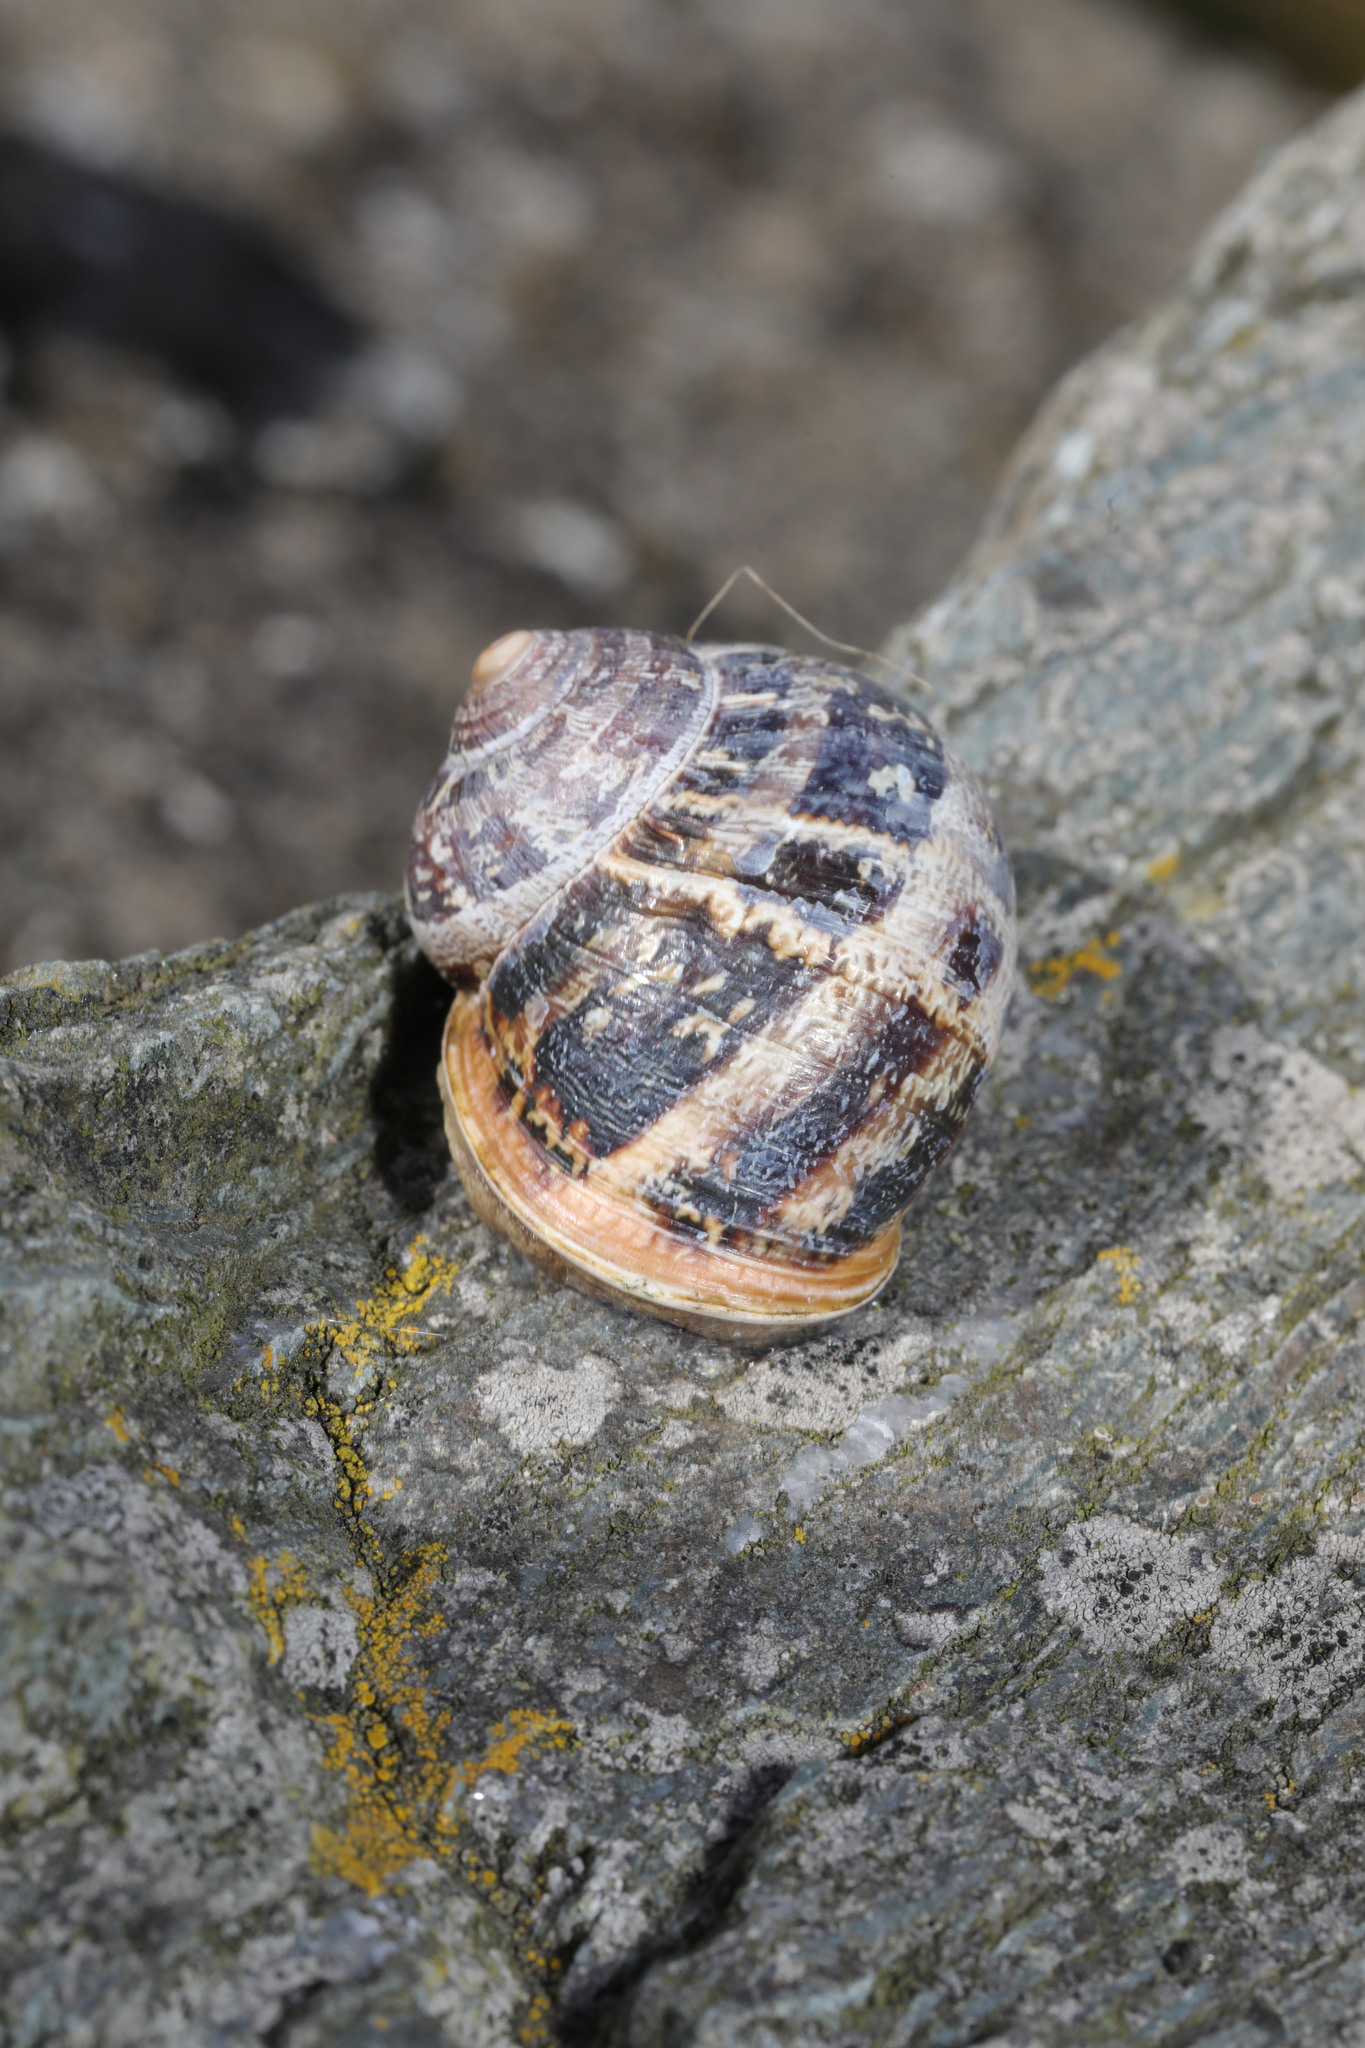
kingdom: Animalia
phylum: Mollusca
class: Gastropoda
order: Stylommatophora
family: Helicidae
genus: Cornu
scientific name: Cornu aspersum
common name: Brown garden snail
